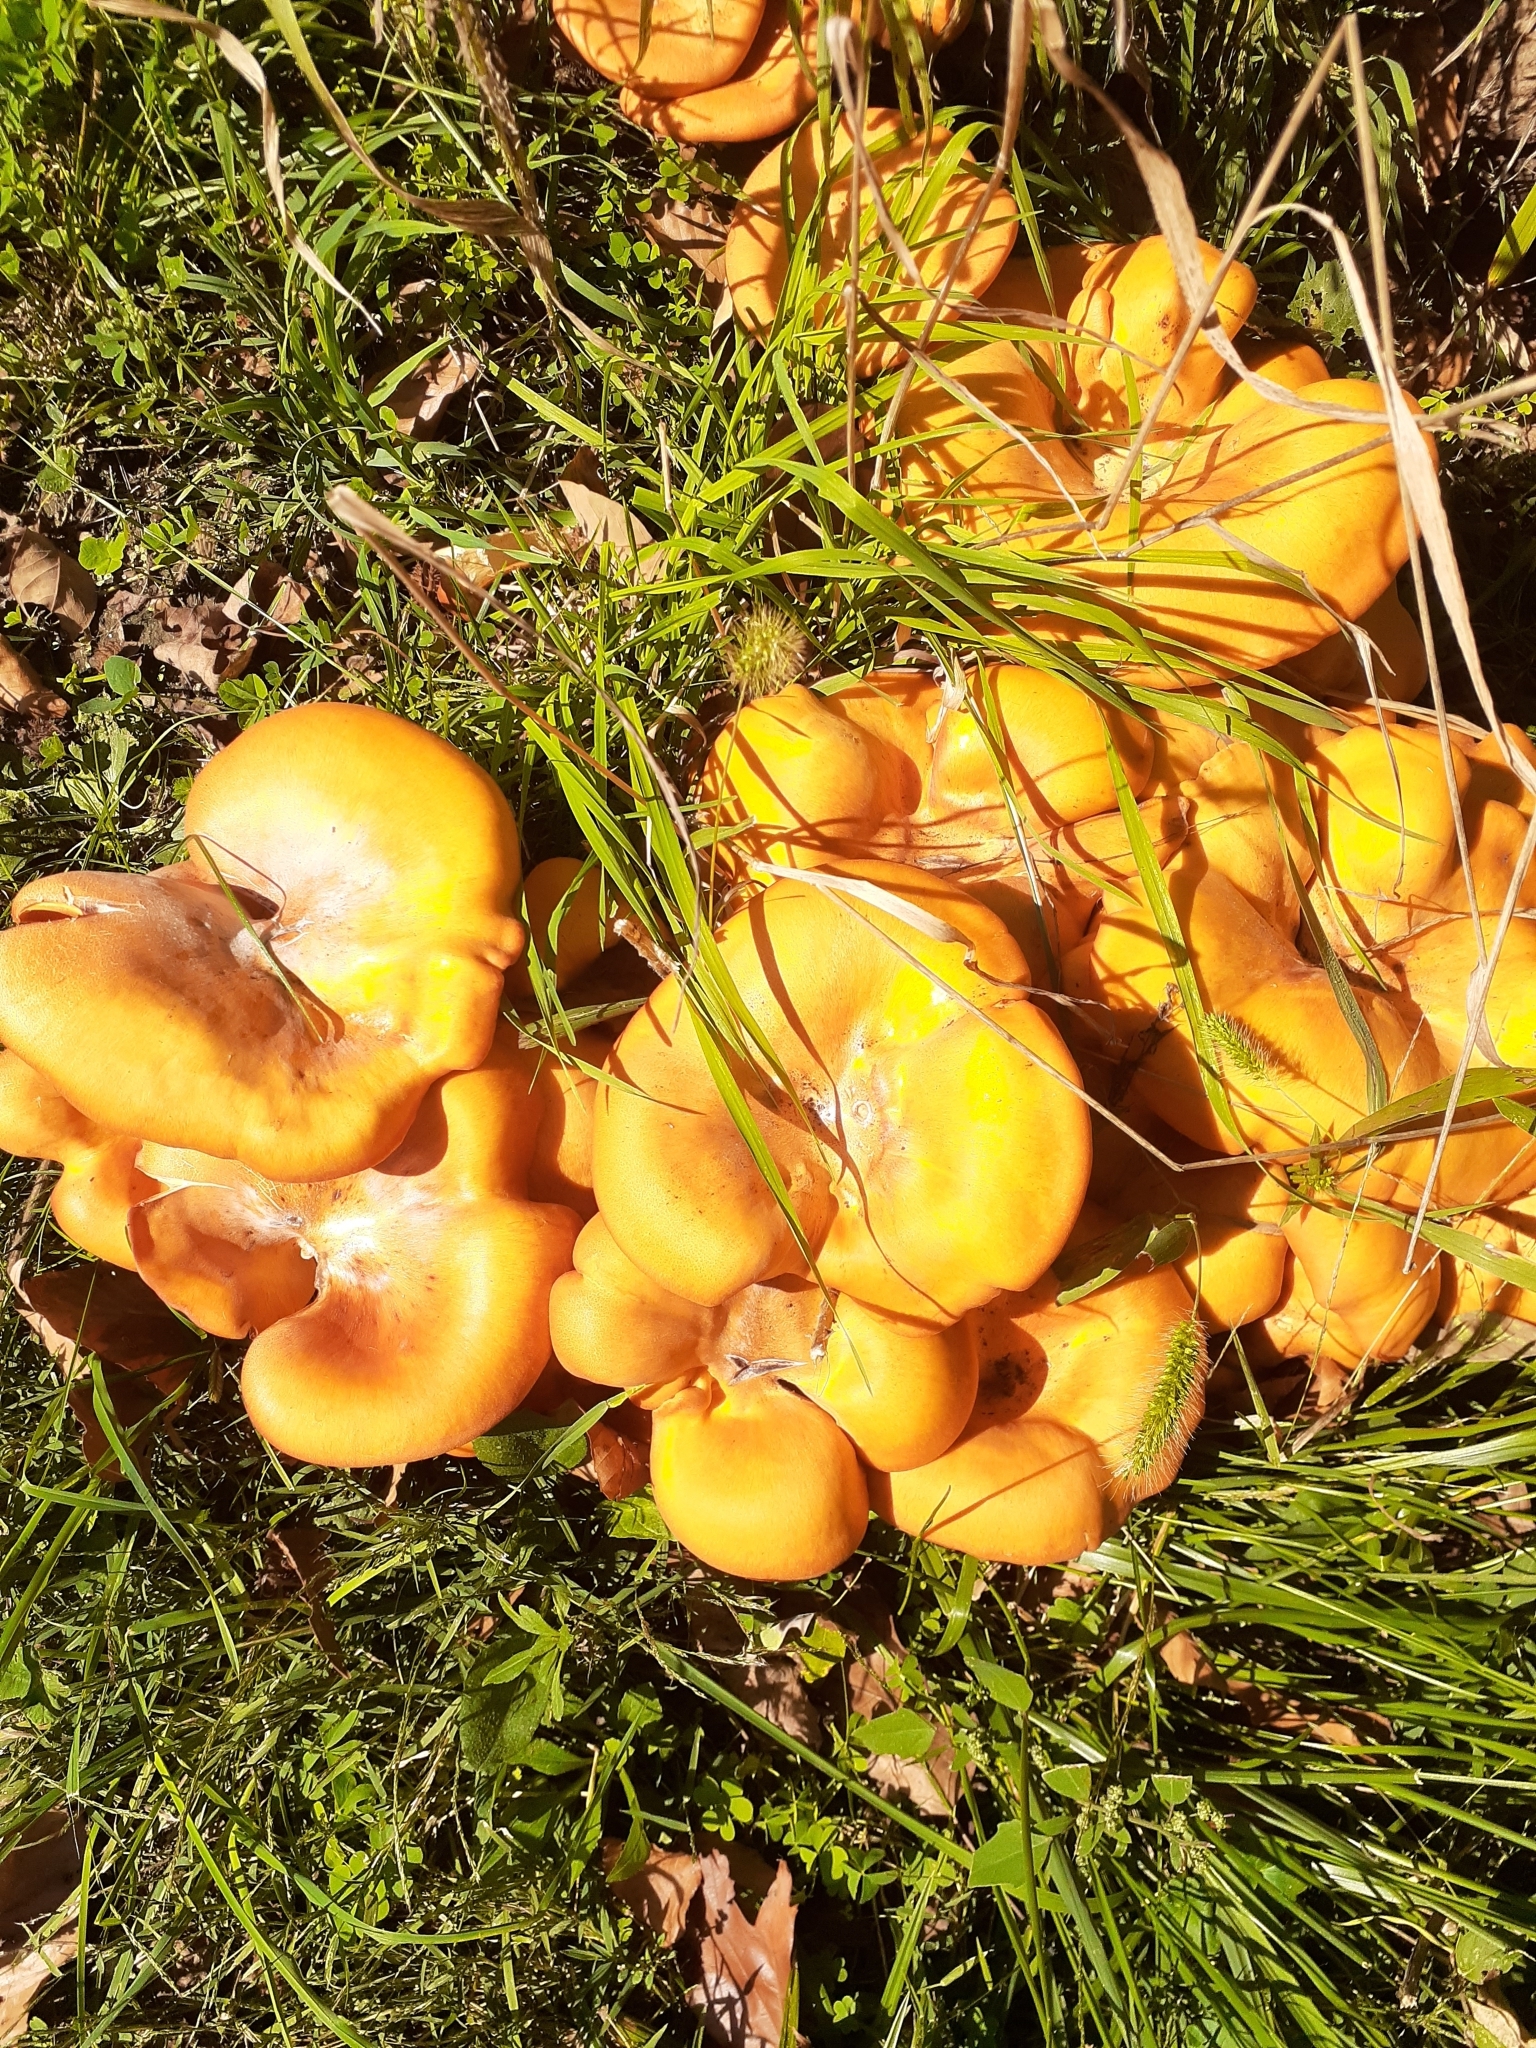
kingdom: Fungi
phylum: Basidiomycota
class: Agaricomycetes
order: Agaricales
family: Omphalotaceae
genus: Omphalotus
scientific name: Omphalotus illudens
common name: Jack o lantern
